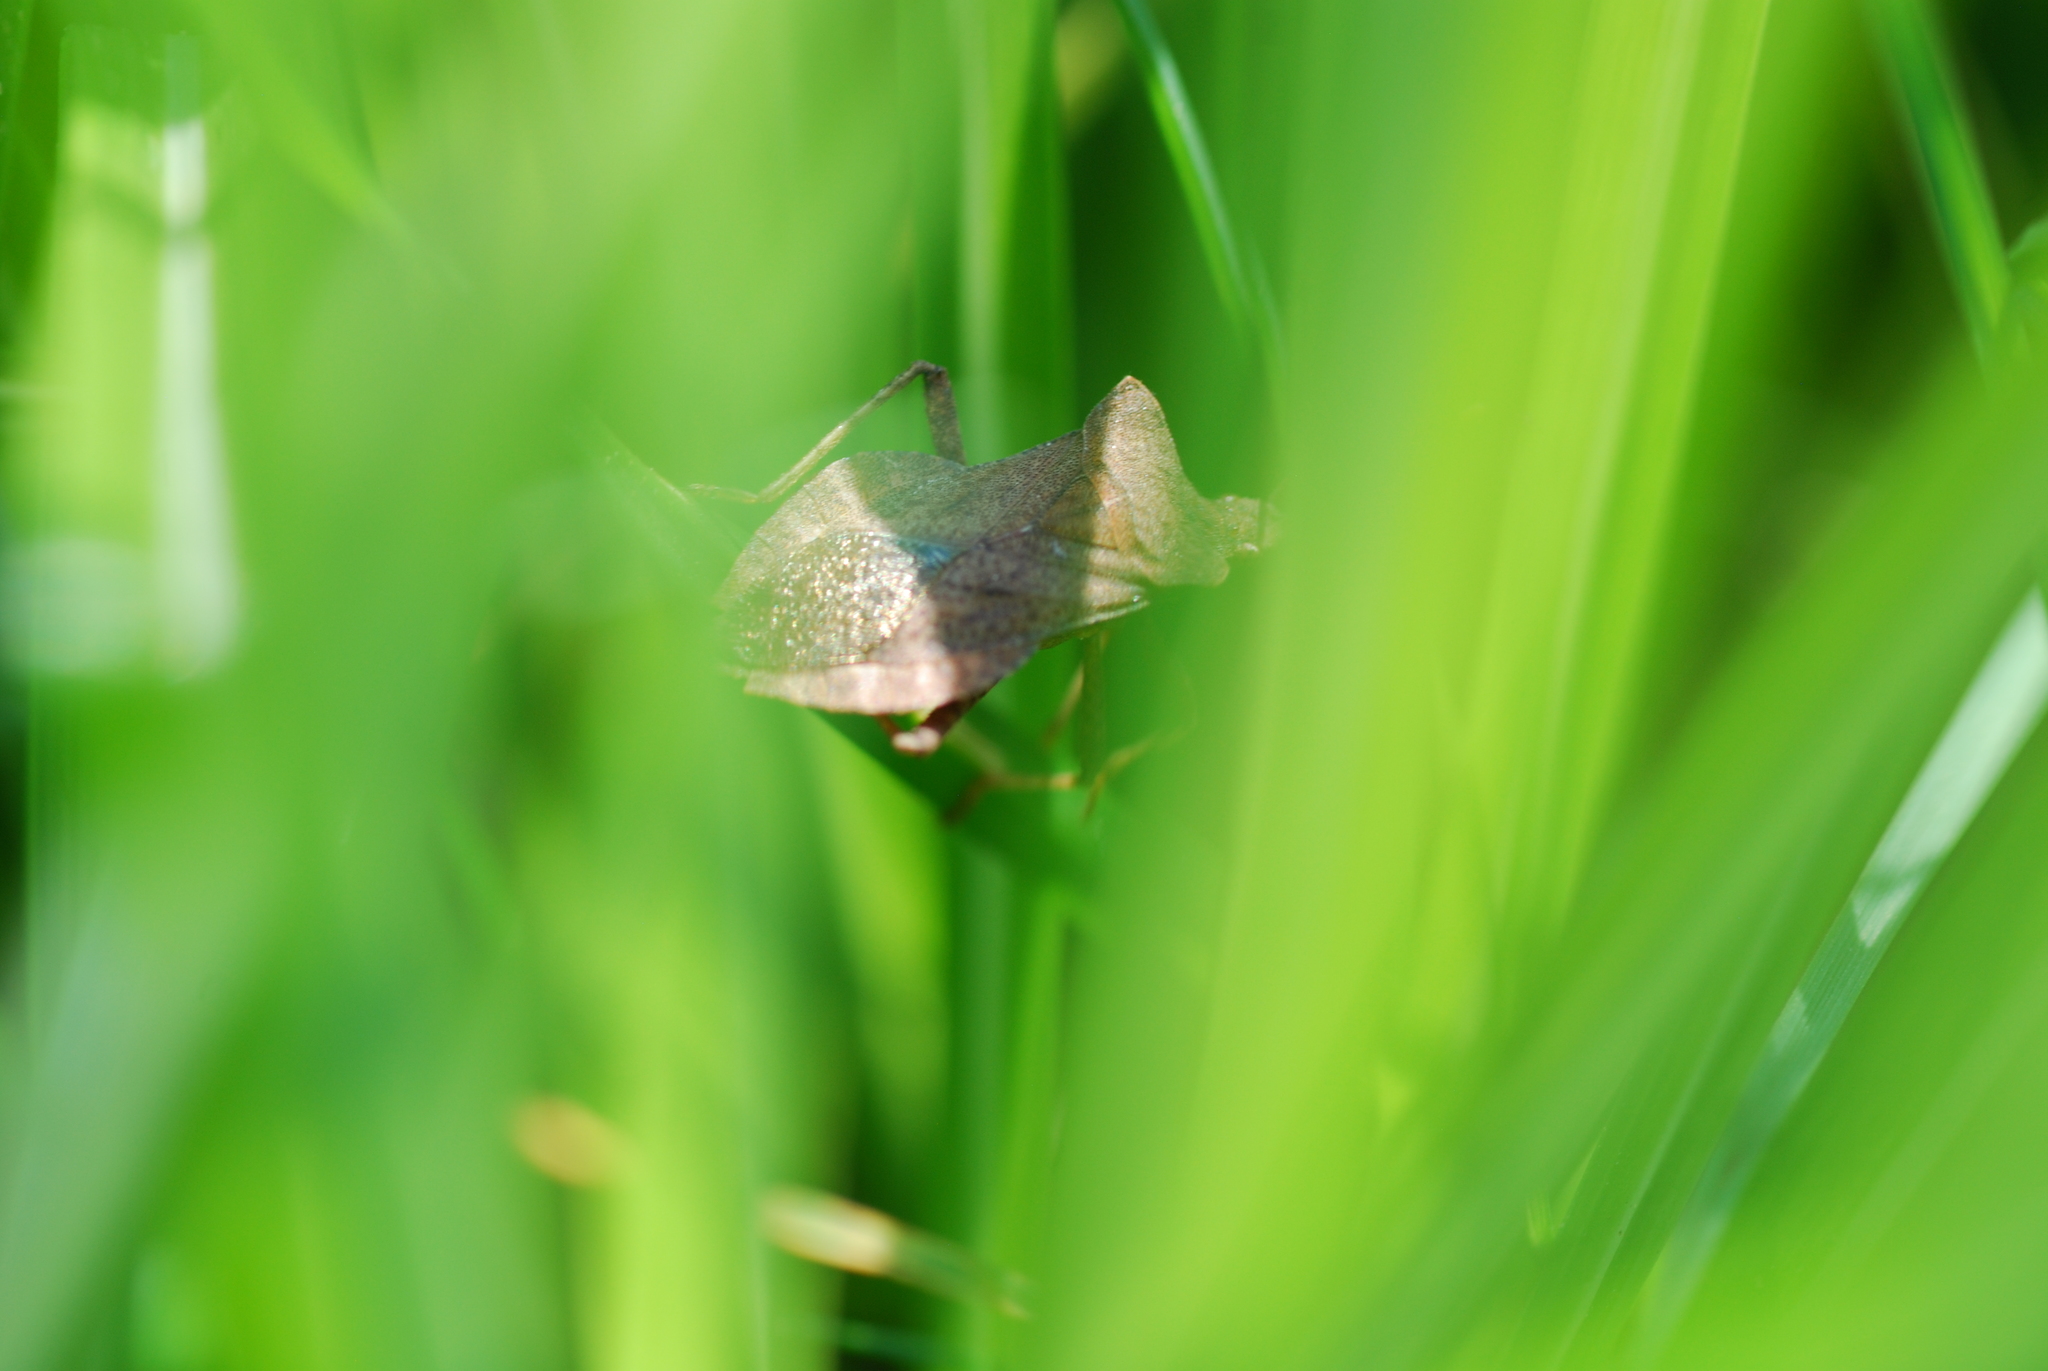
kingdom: Animalia
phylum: Arthropoda
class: Insecta
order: Hemiptera
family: Coreidae
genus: Coreus
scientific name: Coreus marginatus
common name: Dock bug
